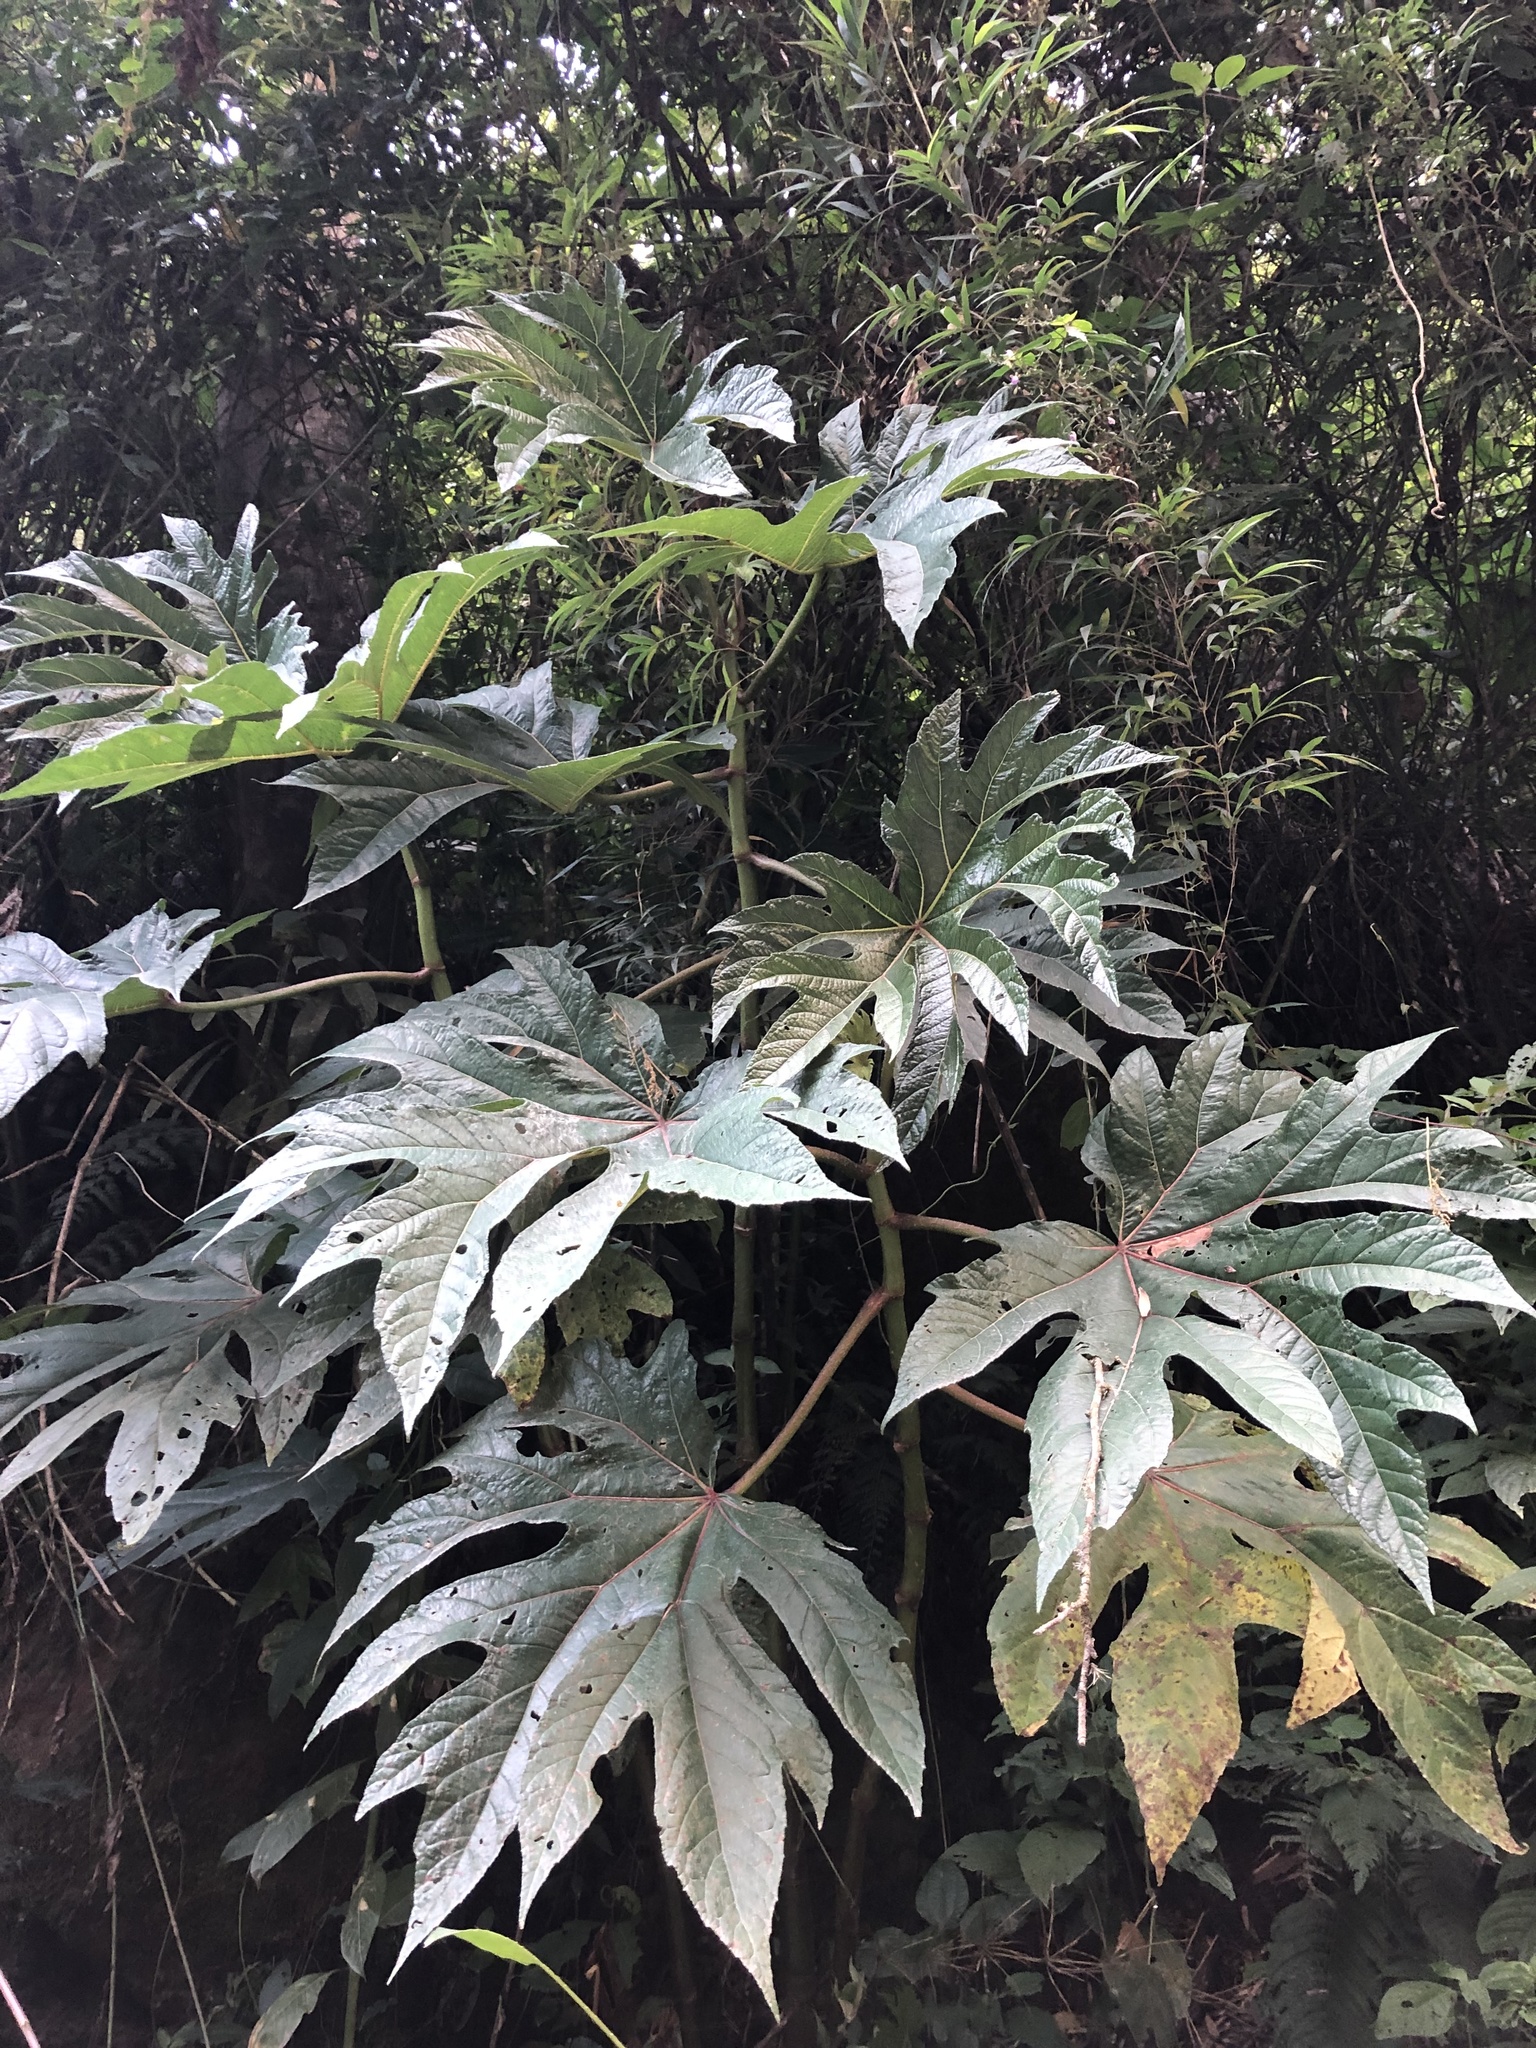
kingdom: Plantae
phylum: Tracheophyta
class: Magnoliopsida
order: Cucurbitales
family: Begoniaceae
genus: Begonia
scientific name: Begonia parviflora
